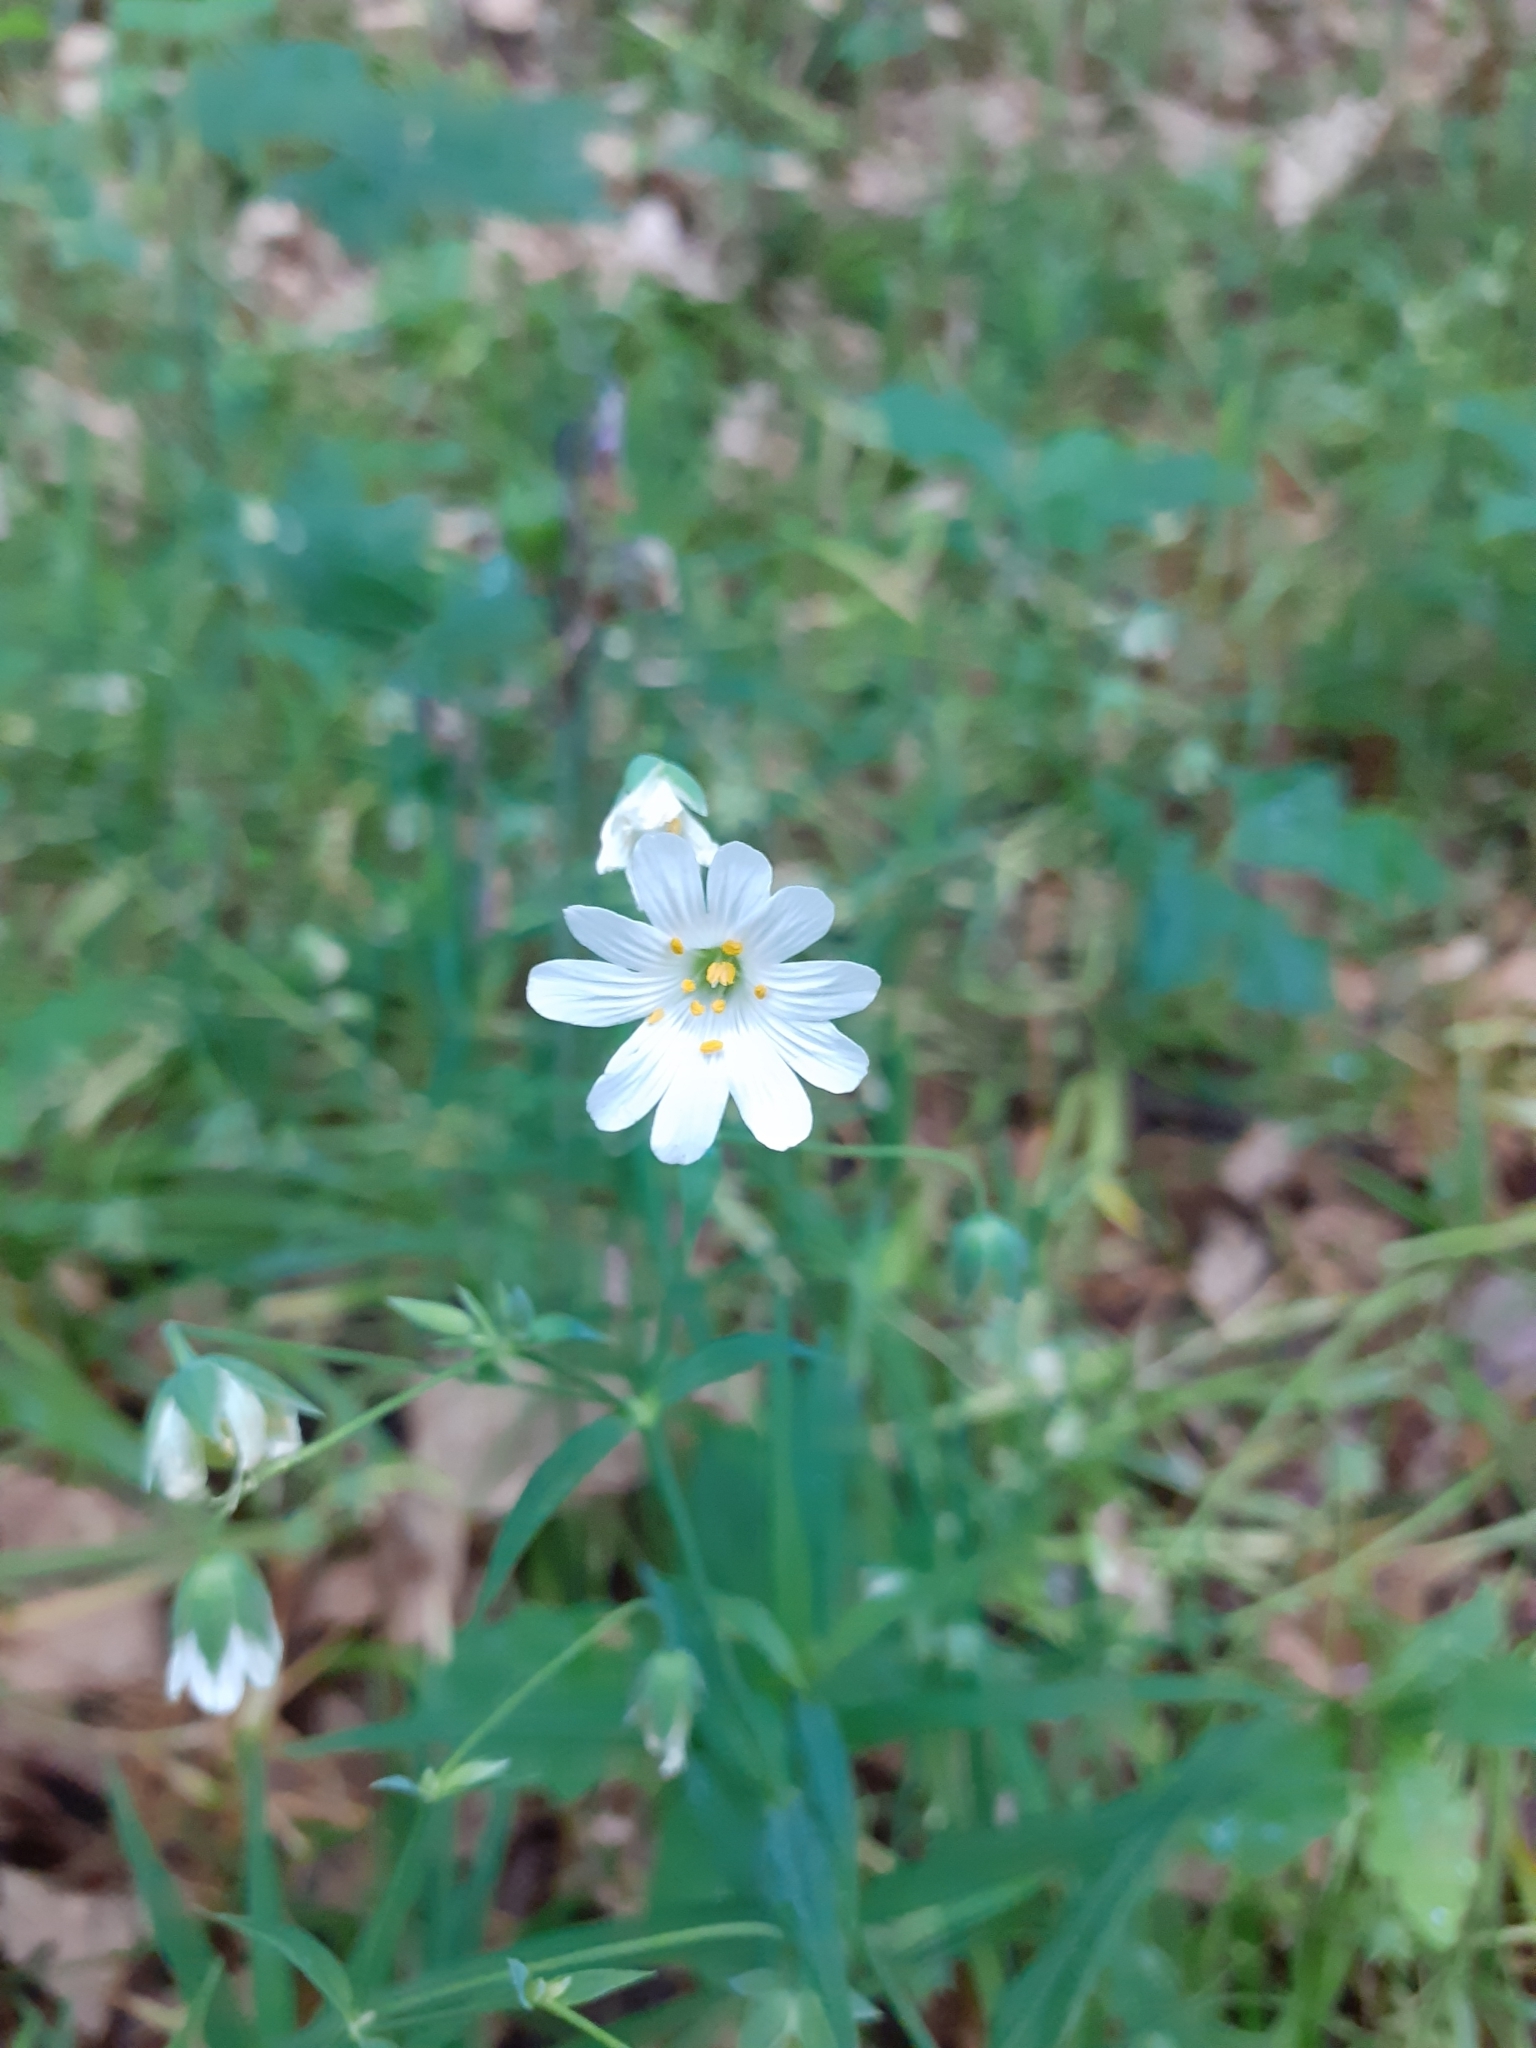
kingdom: Plantae
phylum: Tracheophyta
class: Magnoliopsida
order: Caryophyllales
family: Caryophyllaceae
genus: Rabelera
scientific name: Rabelera holostea
